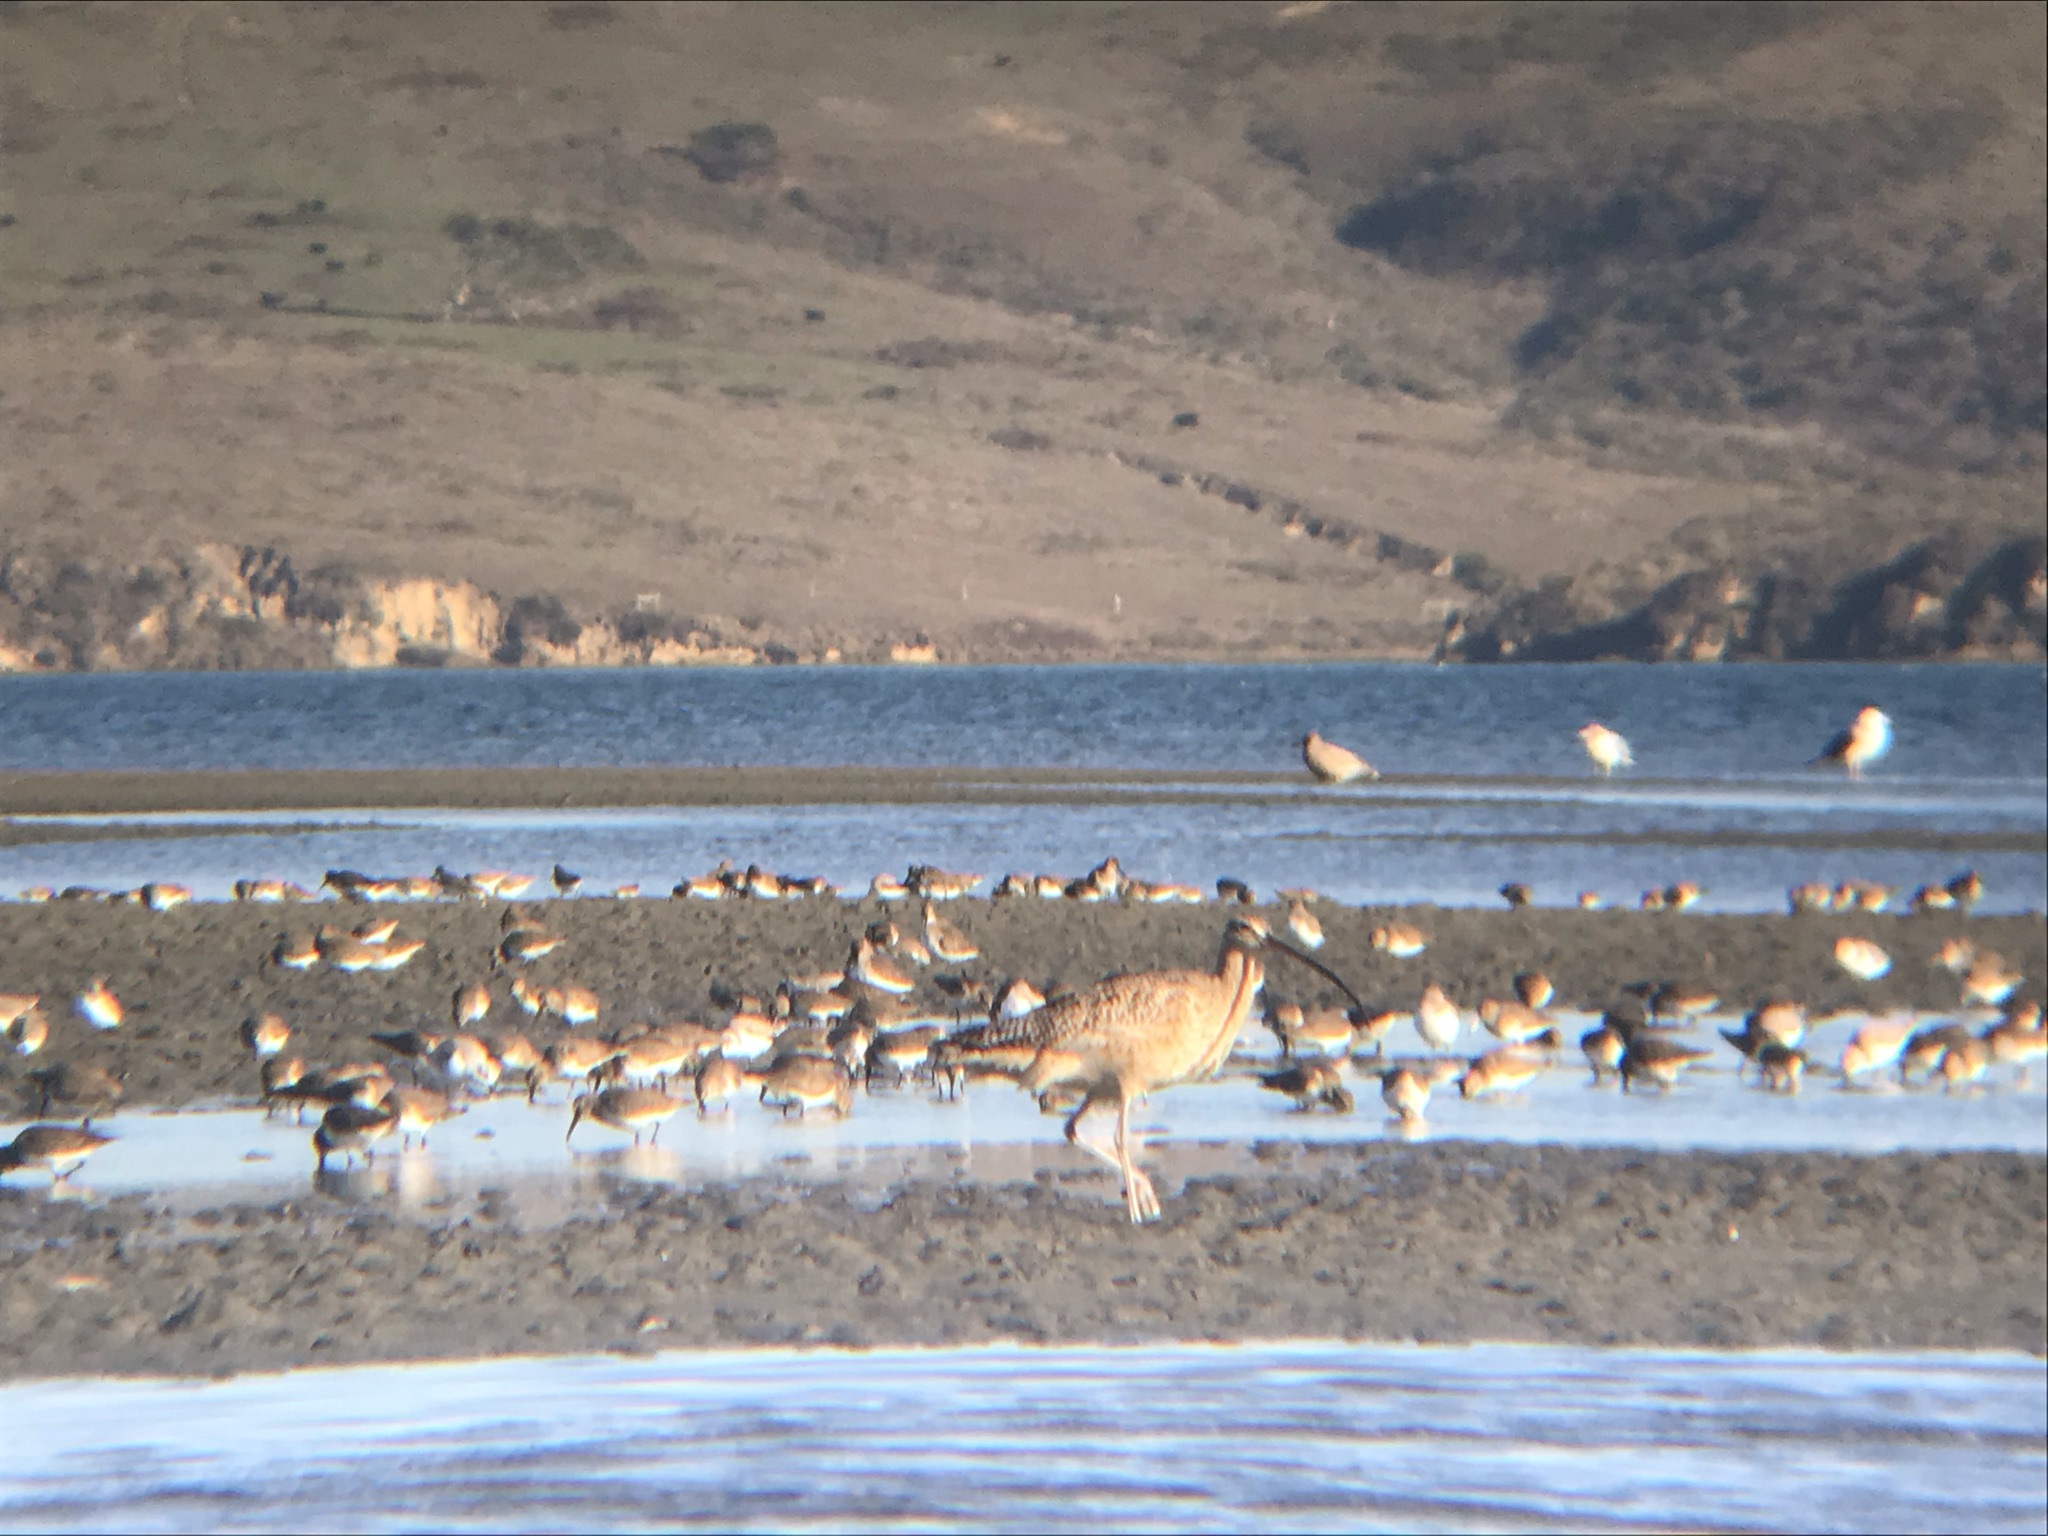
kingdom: Animalia
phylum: Chordata
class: Aves
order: Charadriiformes
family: Scolopacidae
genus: Numenius
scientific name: Numenius americanus
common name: Long-billed curlew
